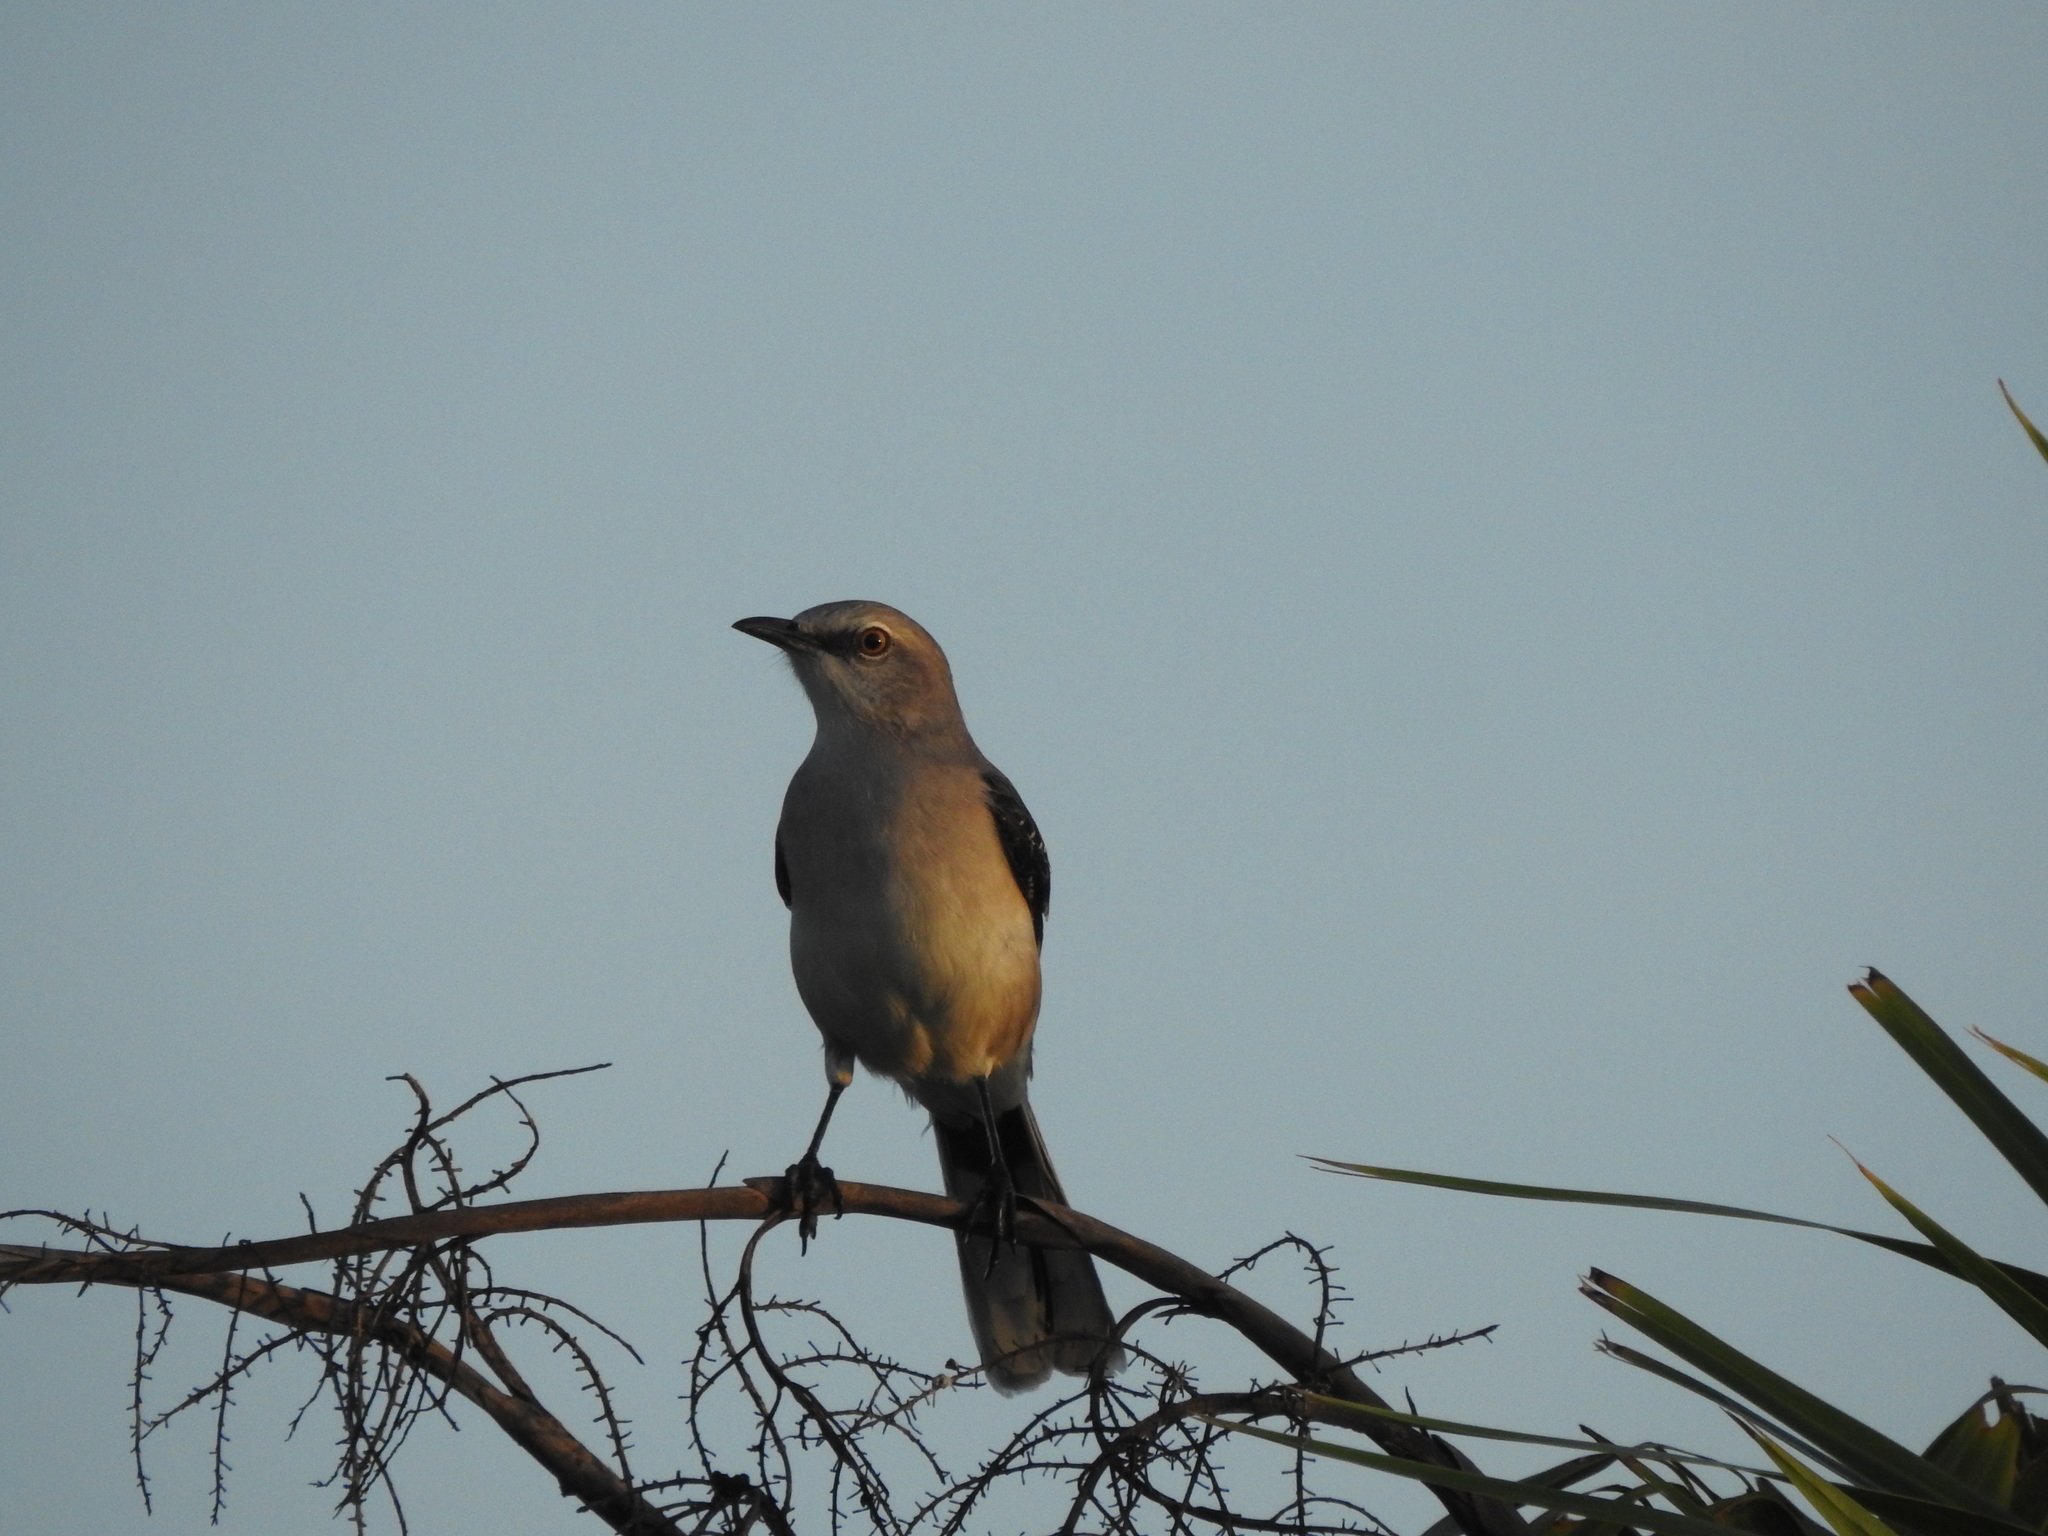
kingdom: Animalia
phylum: Chordata
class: Aves
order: Passeriformes
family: Mimidae
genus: Mimus
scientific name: Mimus gilvus
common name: Tropical mockingbird
